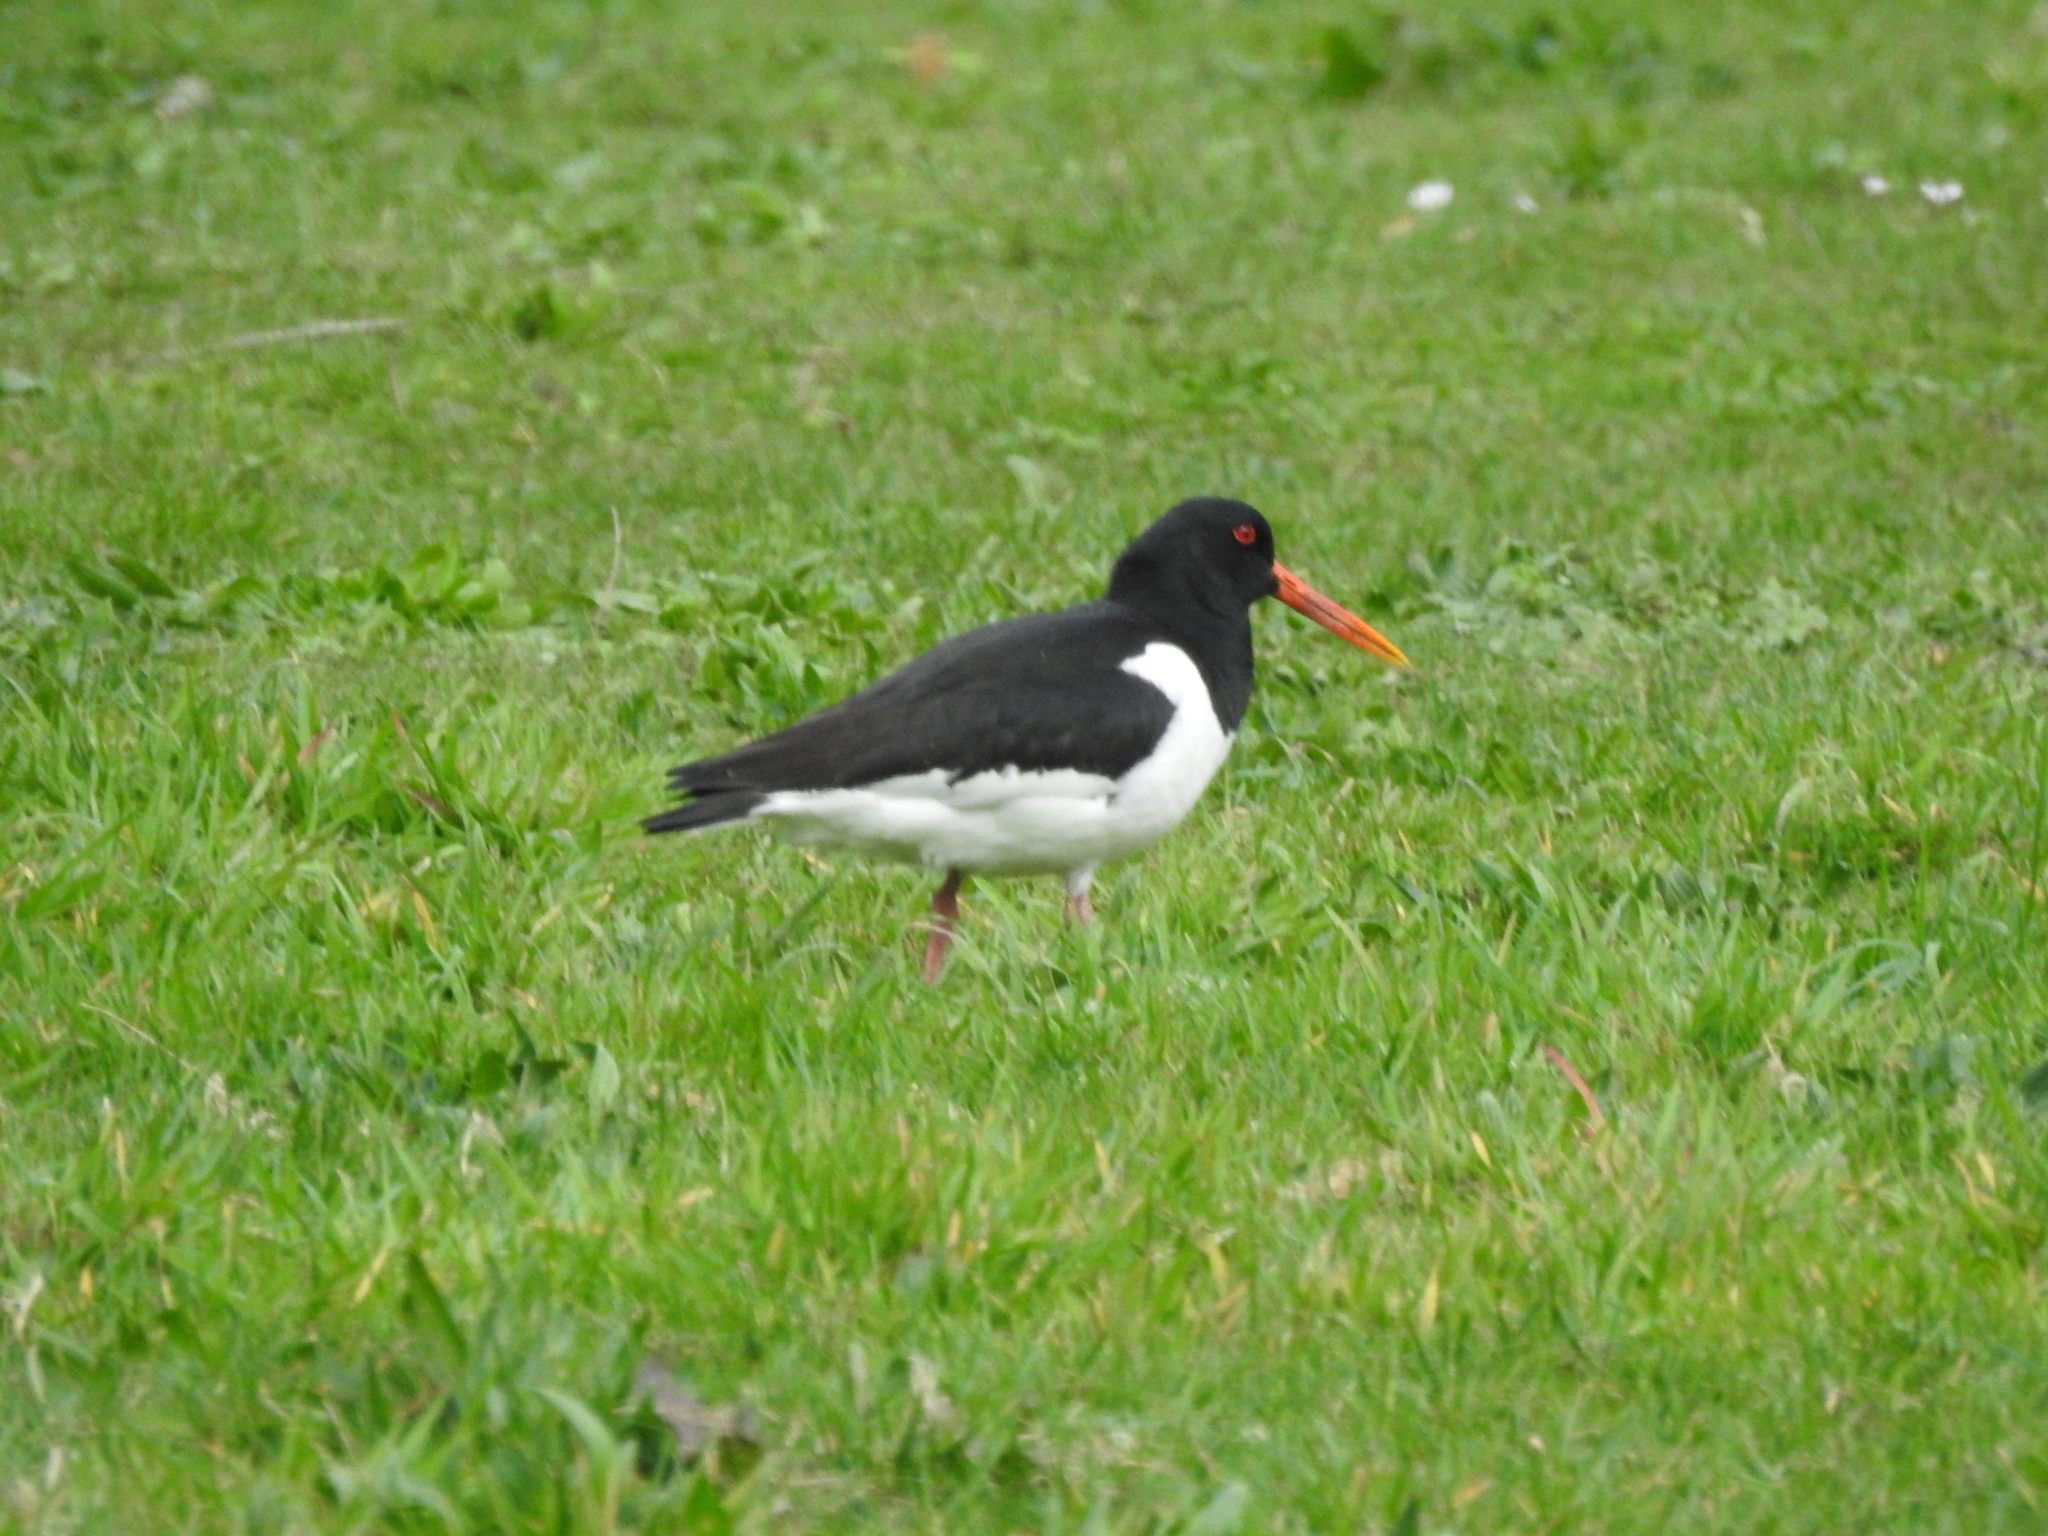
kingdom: Animalia
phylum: Chordata
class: Aves
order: Charadriiformes
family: Haematopodidae
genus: Haematopus
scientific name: Haematopus ostralegus
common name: Eurasian oystercatcher
